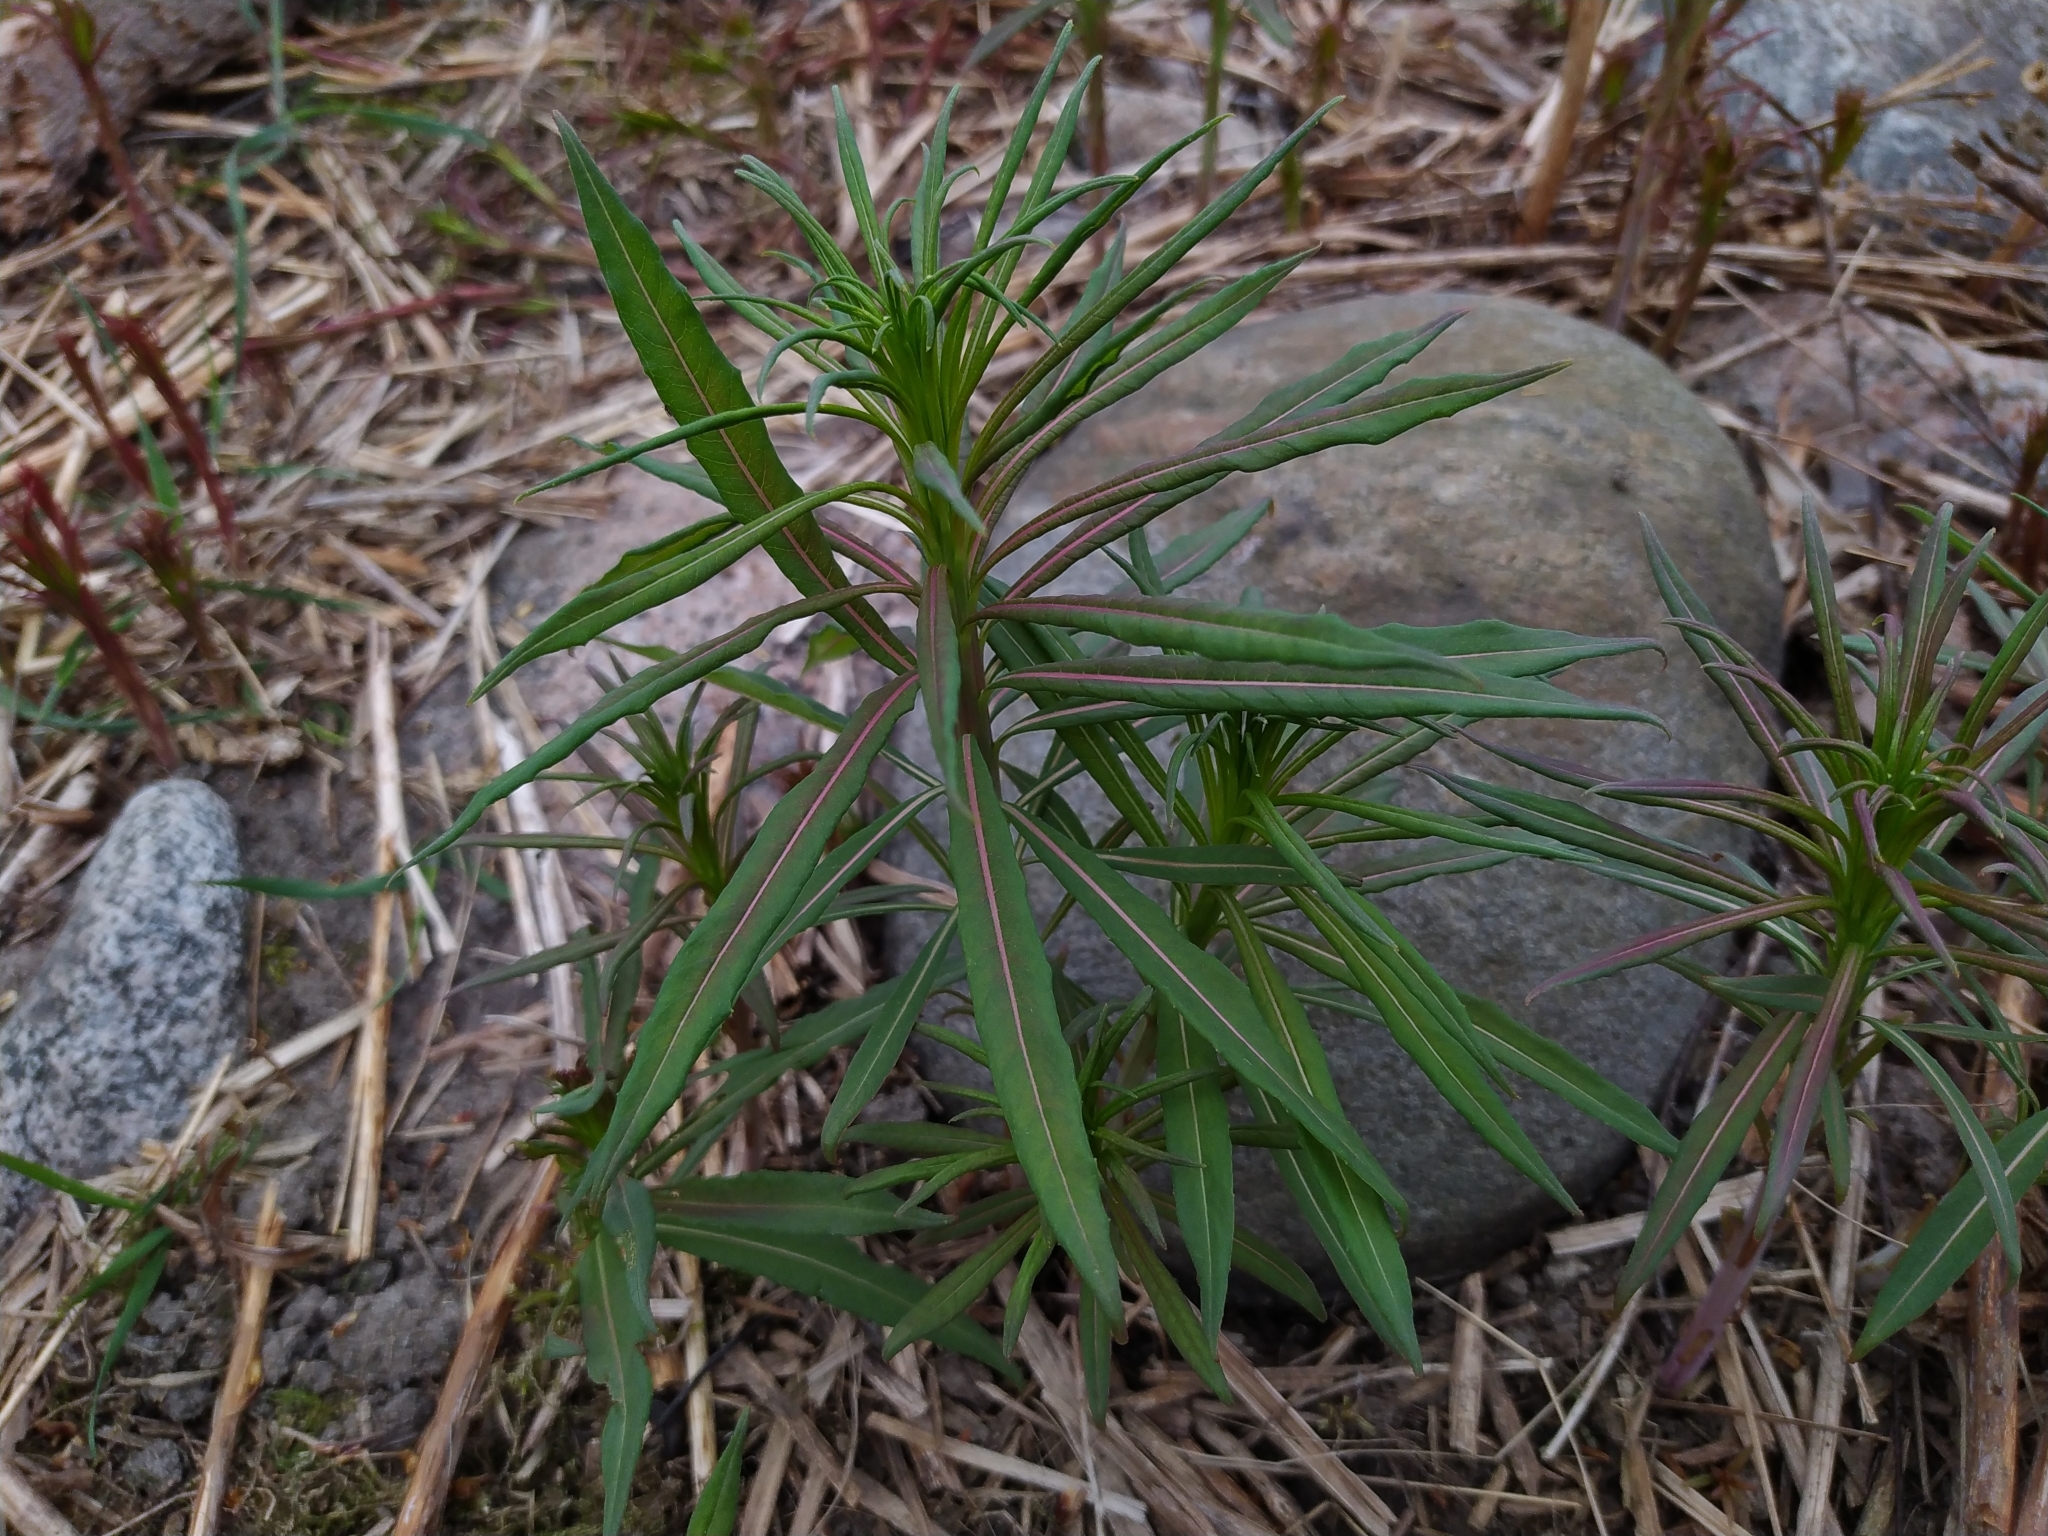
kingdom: Plantae
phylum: Tracheophyta
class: Magnoliopsida
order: Myrtales
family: Onagraceae
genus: Chamaenerion
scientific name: Chamaenerion angustifolium
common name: Fireweed
